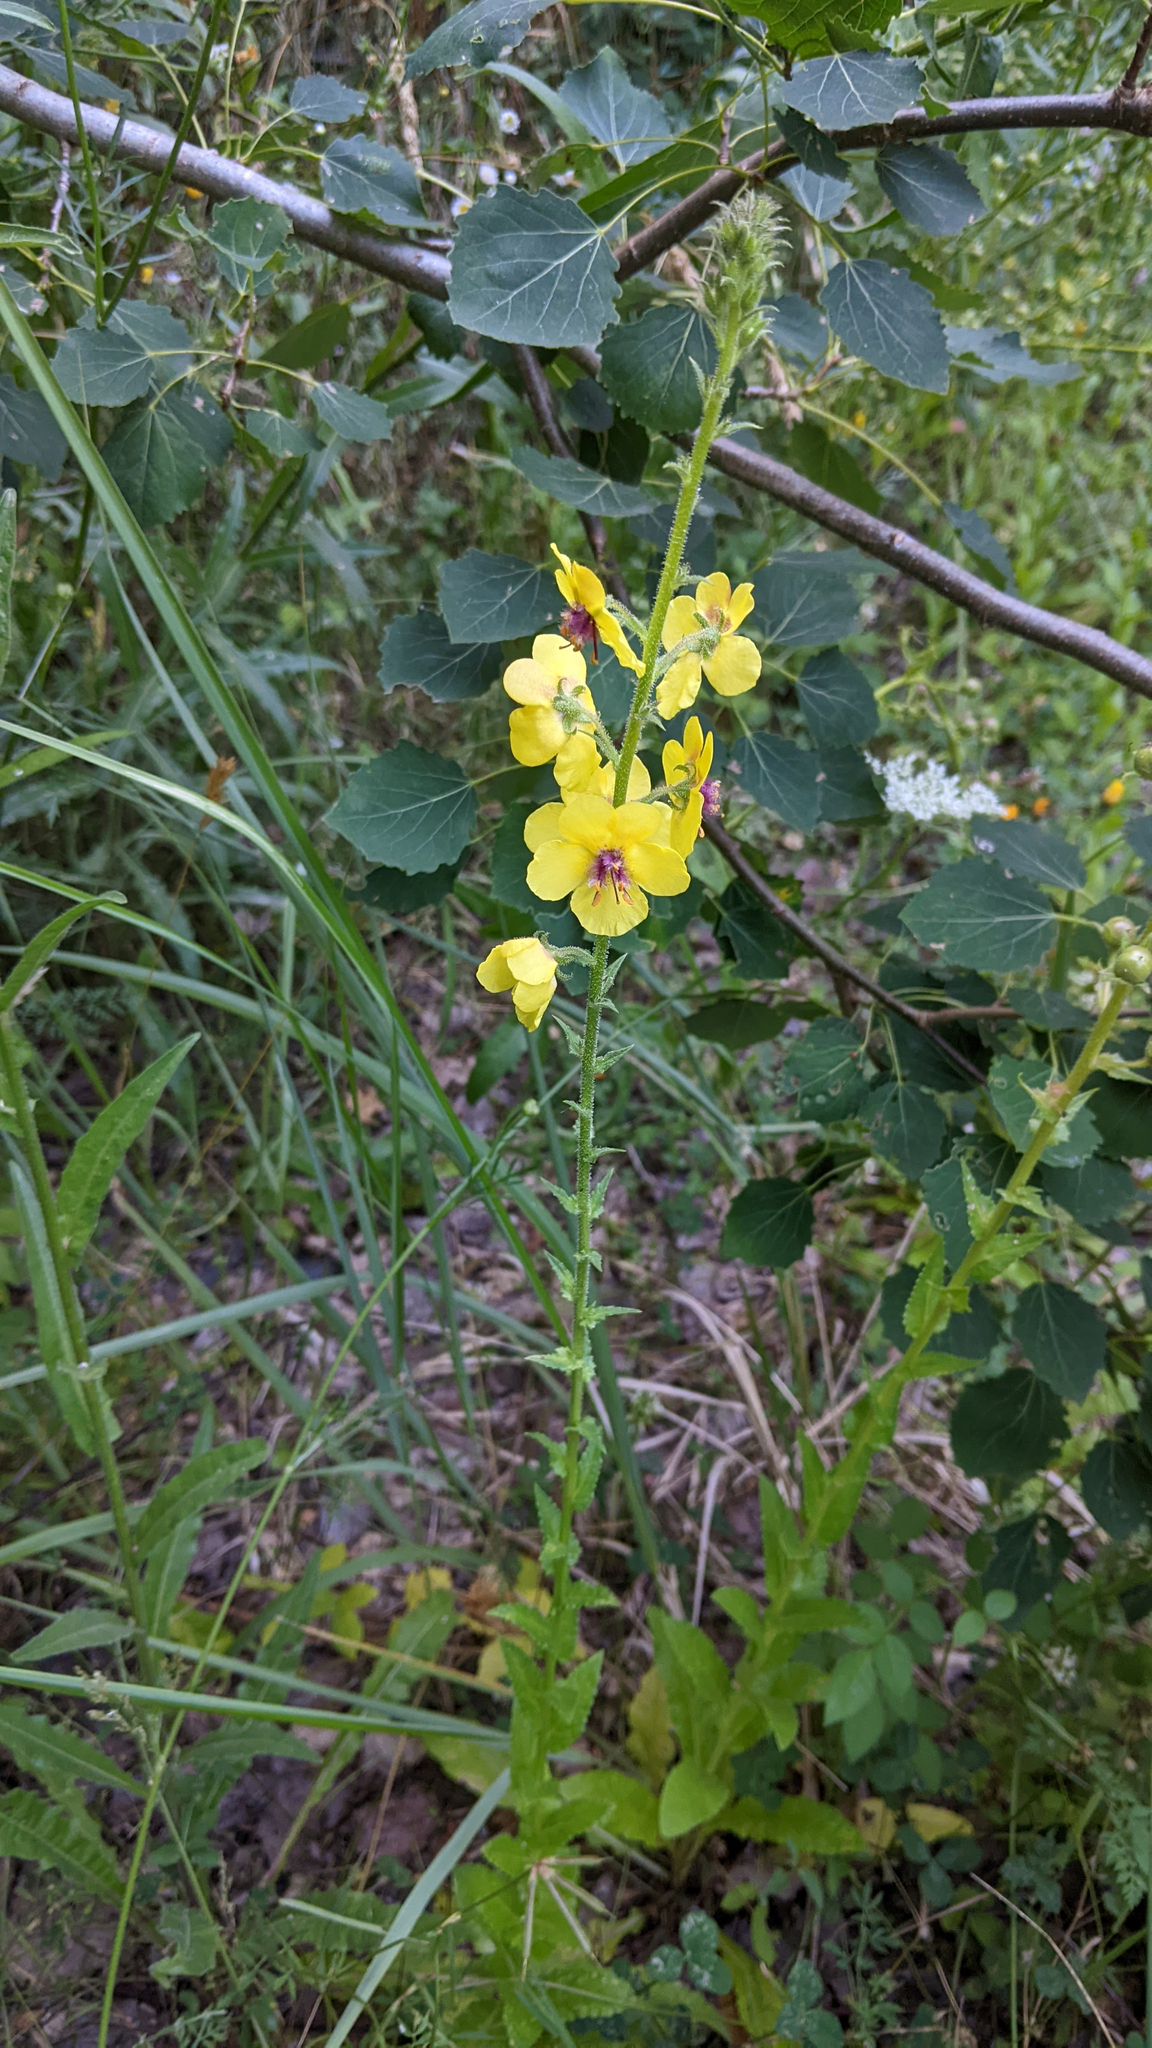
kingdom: Plantae
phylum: Tracheophyta
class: Magnoliopsida
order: Lamiales
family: Scrophulariaceae
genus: Verbascum
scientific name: Verbascum blattaria
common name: Moth mullein
